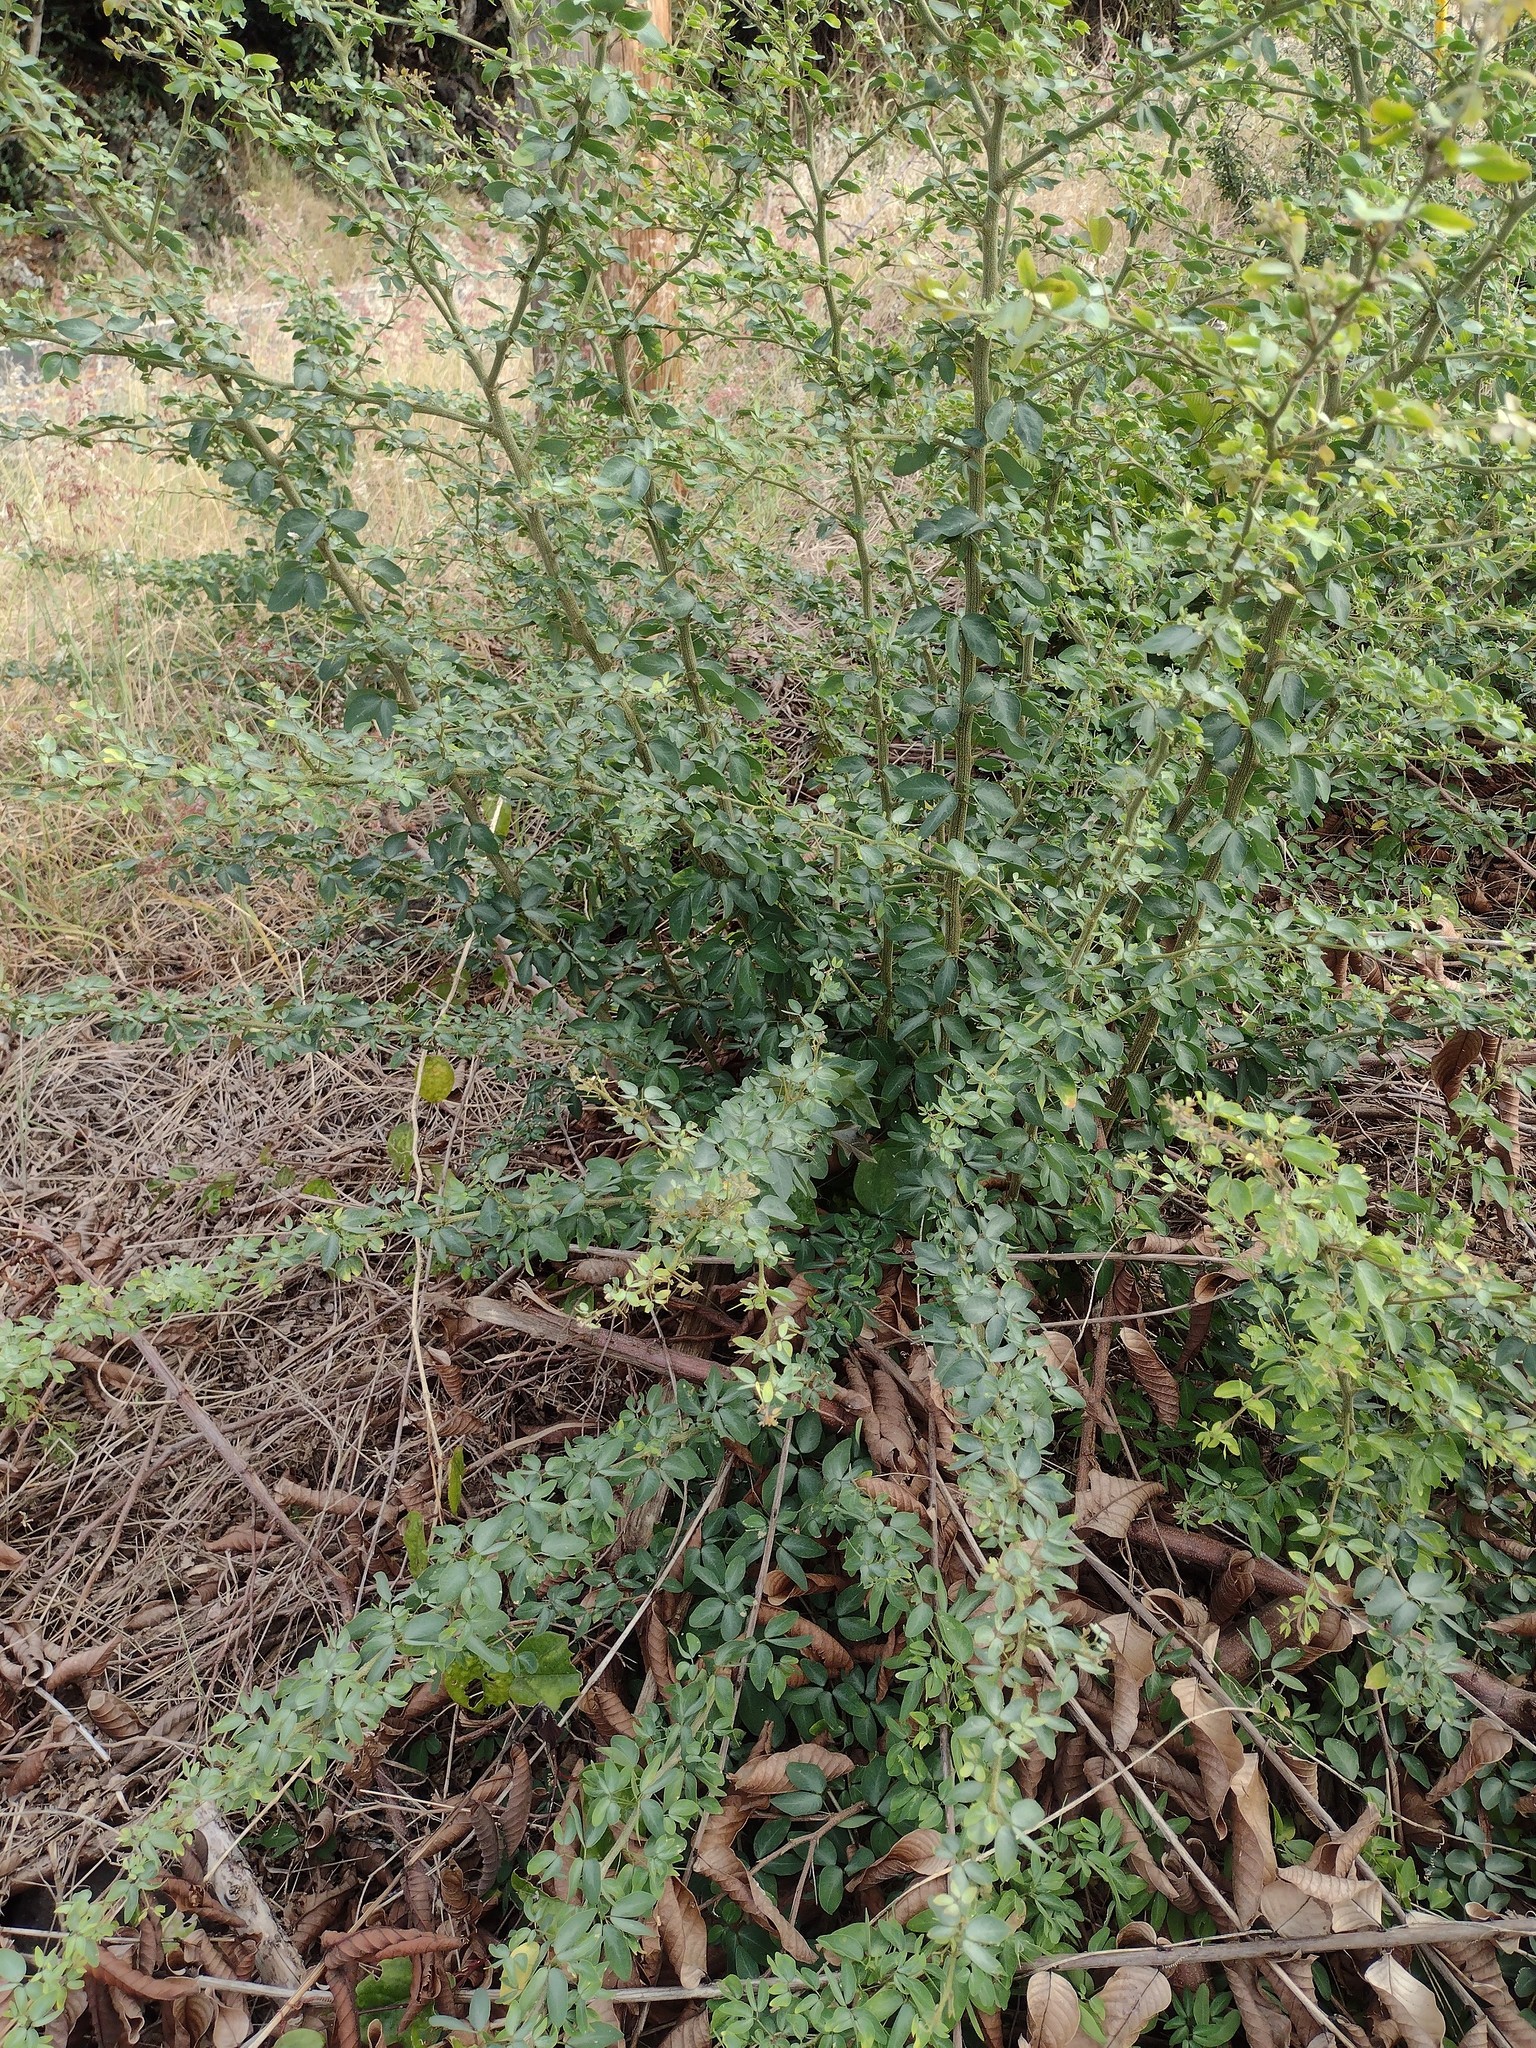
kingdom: Plantae
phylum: Tracheophyta
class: Magnoliopsida
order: Fabales
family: Fabaceae
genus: Pithecellobium
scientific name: Pithecellobium dulce
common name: Monkeypod
